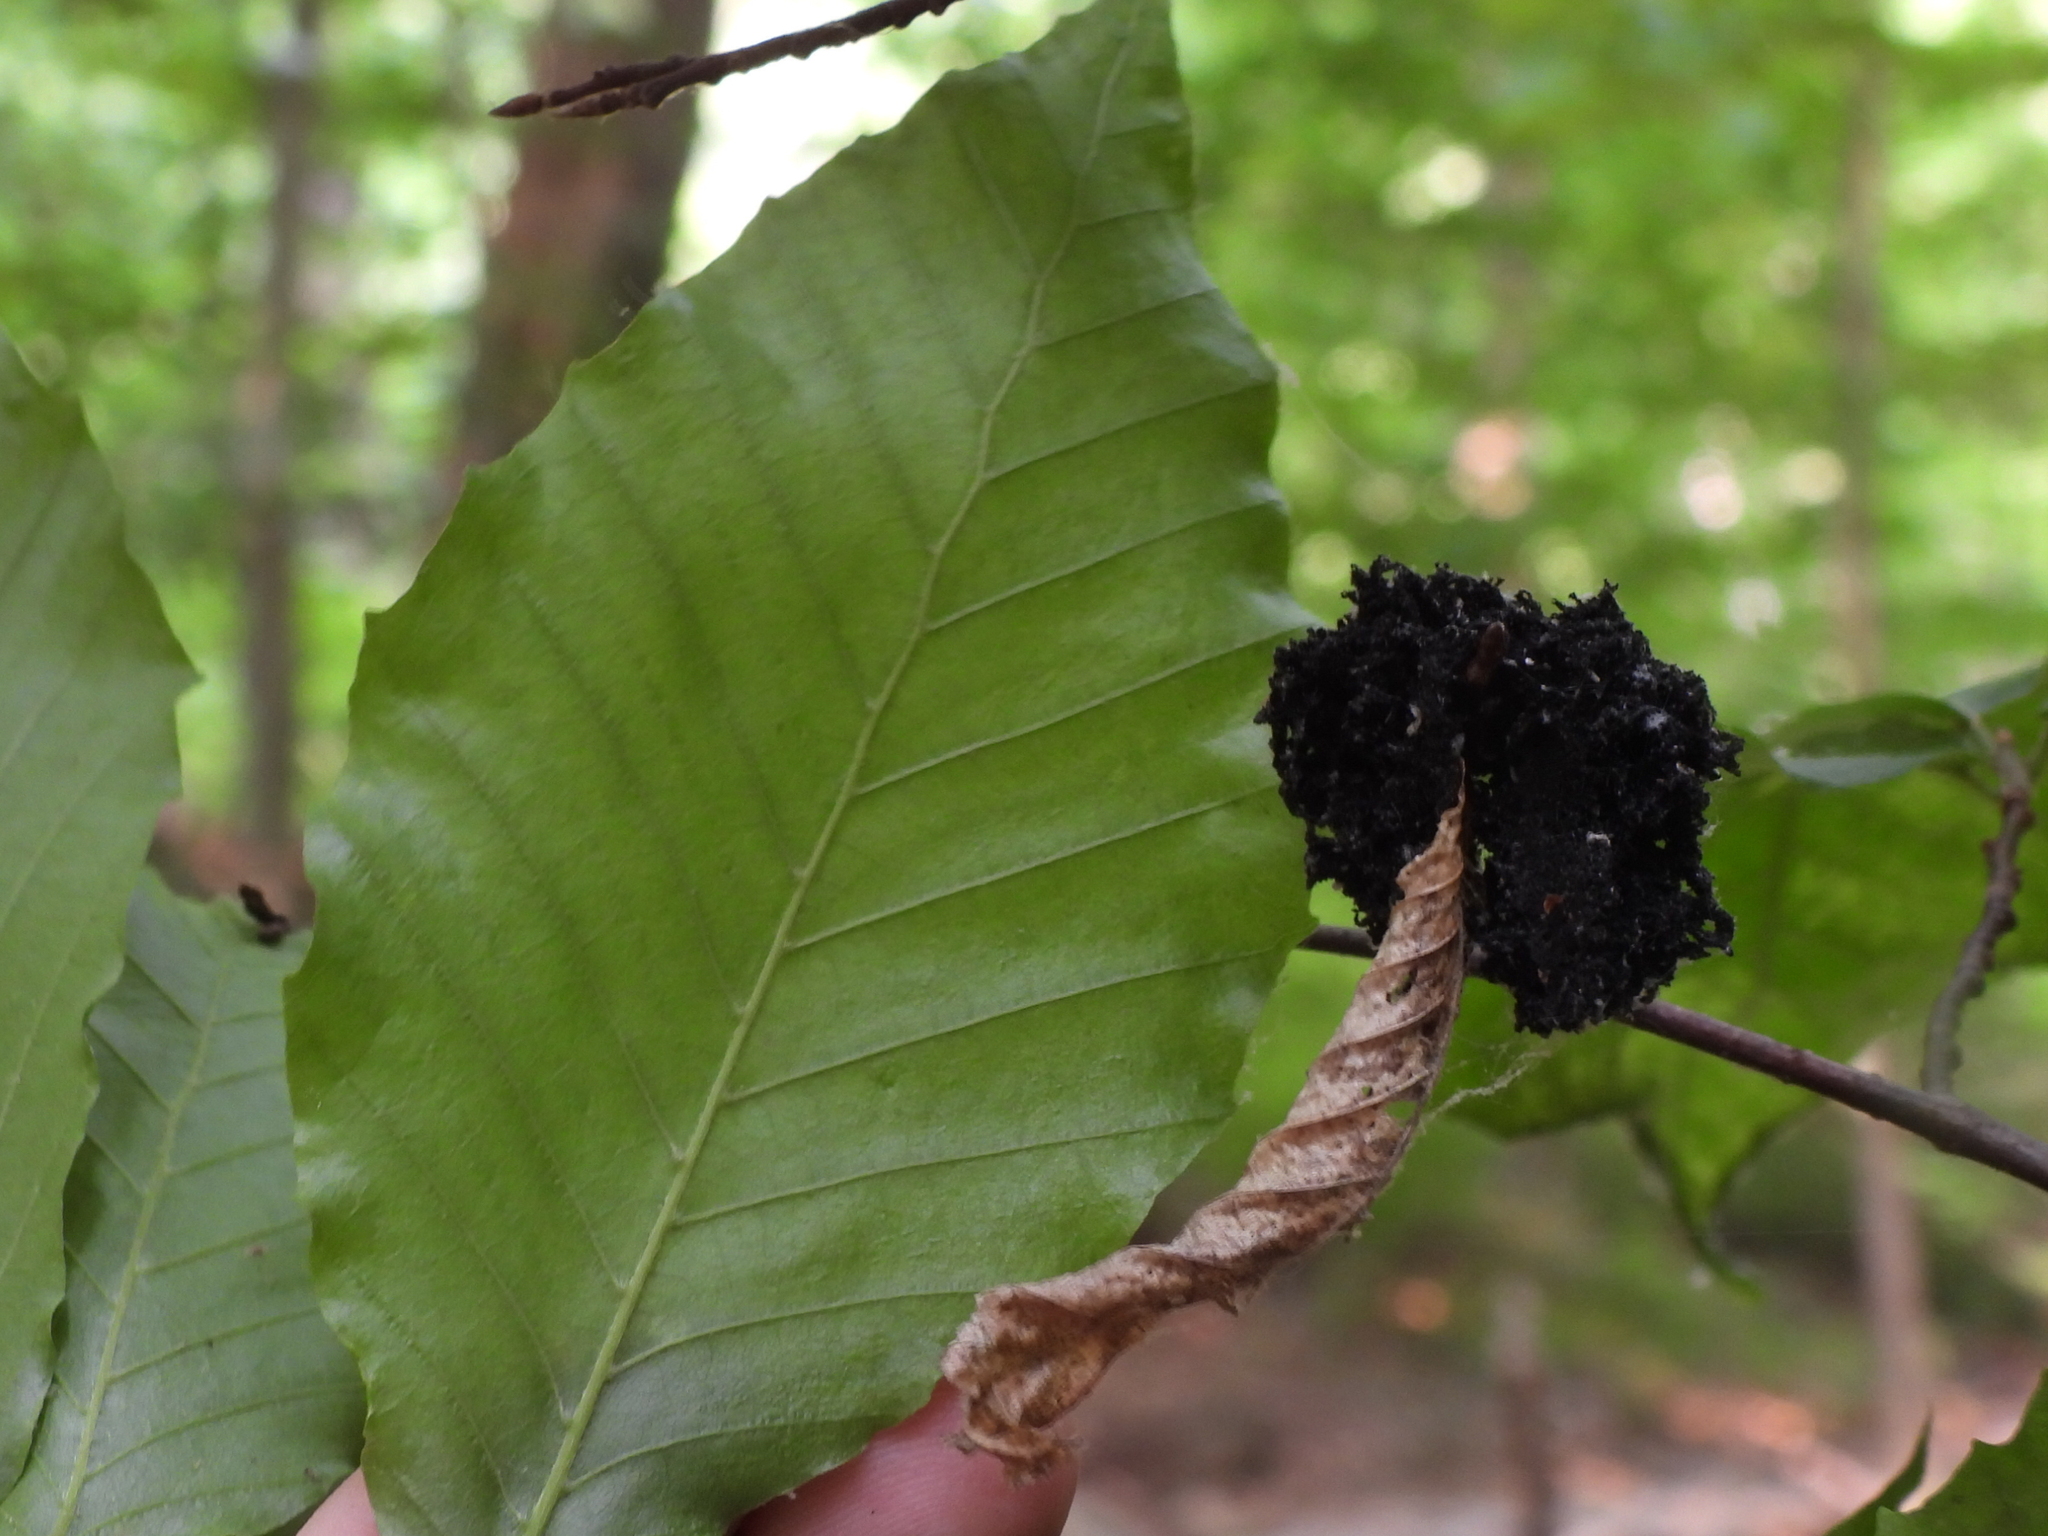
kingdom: Fungi
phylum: Ascomycota
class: Dothideomycetes
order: Capnodiales
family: Capnodiaceae
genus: Scorias
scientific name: Scorias spongiosa
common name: Black sooty mold
